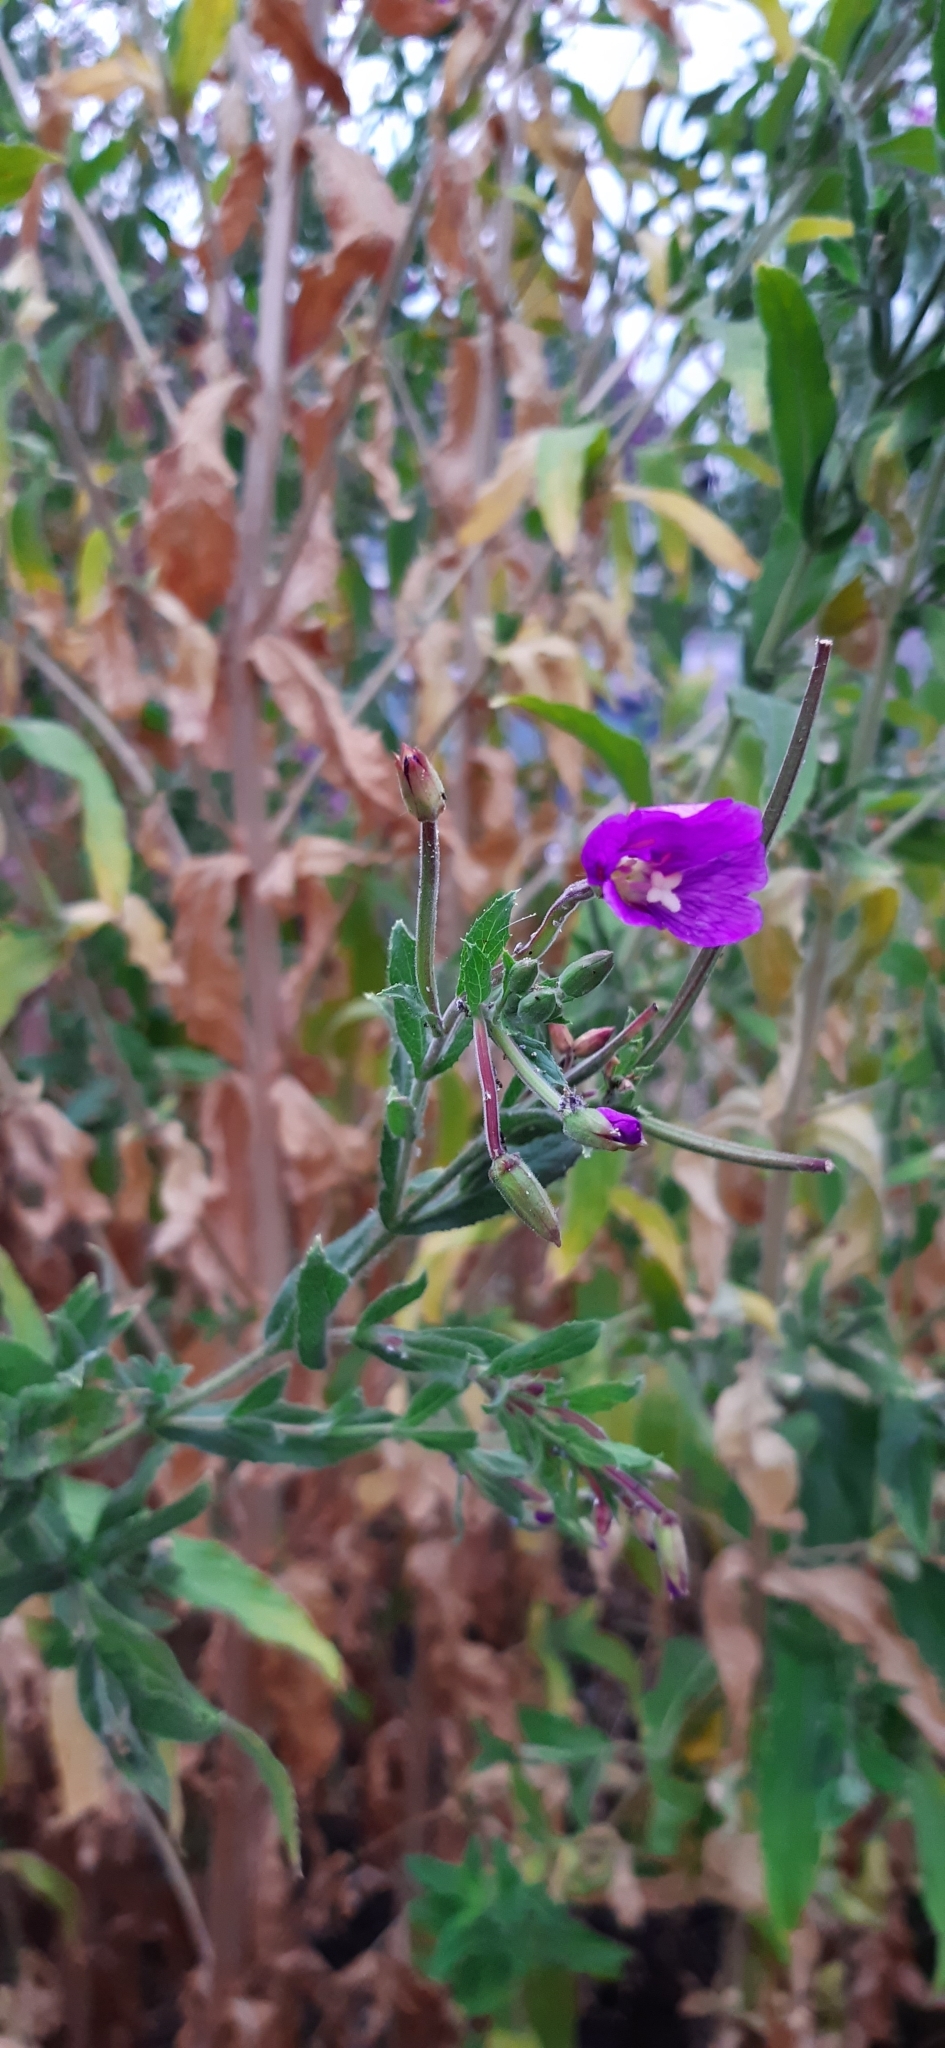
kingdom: Plantae
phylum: Tracheophyta
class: Magnoliopsida
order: Myrtales
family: Onagraceae
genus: Epilobium
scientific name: Epilobium hirsutum
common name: Great willowherb
